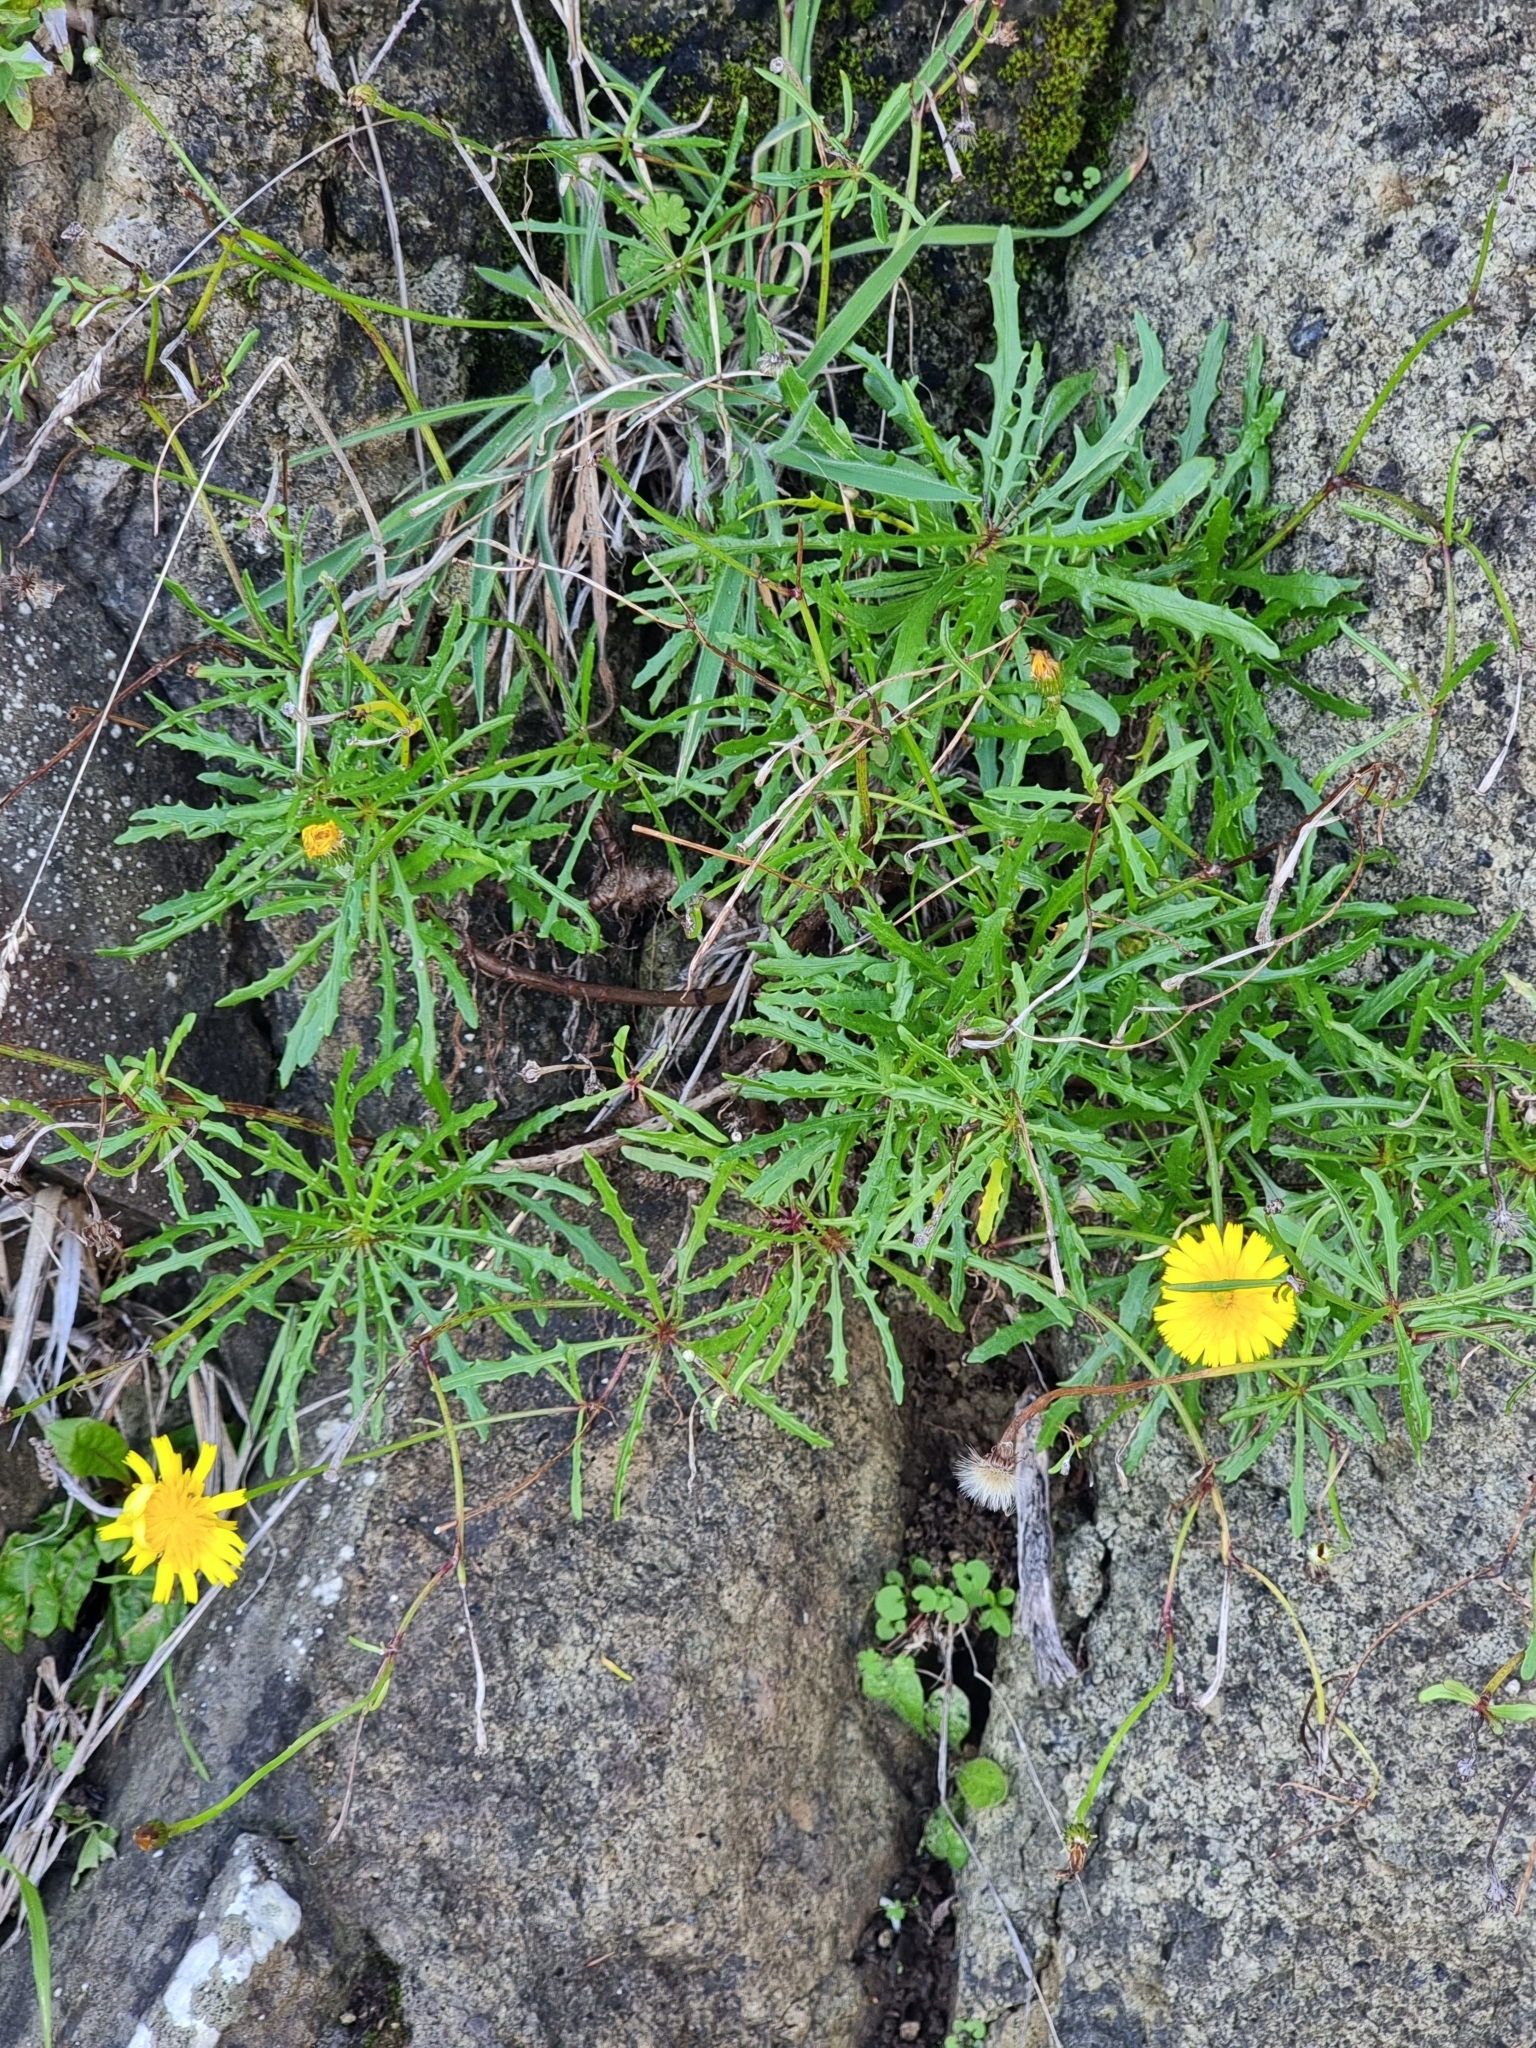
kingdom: Plantae
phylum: Tracheophyta
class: Magnoliopsida
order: Asterales
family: Asteraceae
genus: Tolpis
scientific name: Tolpis succulenta
